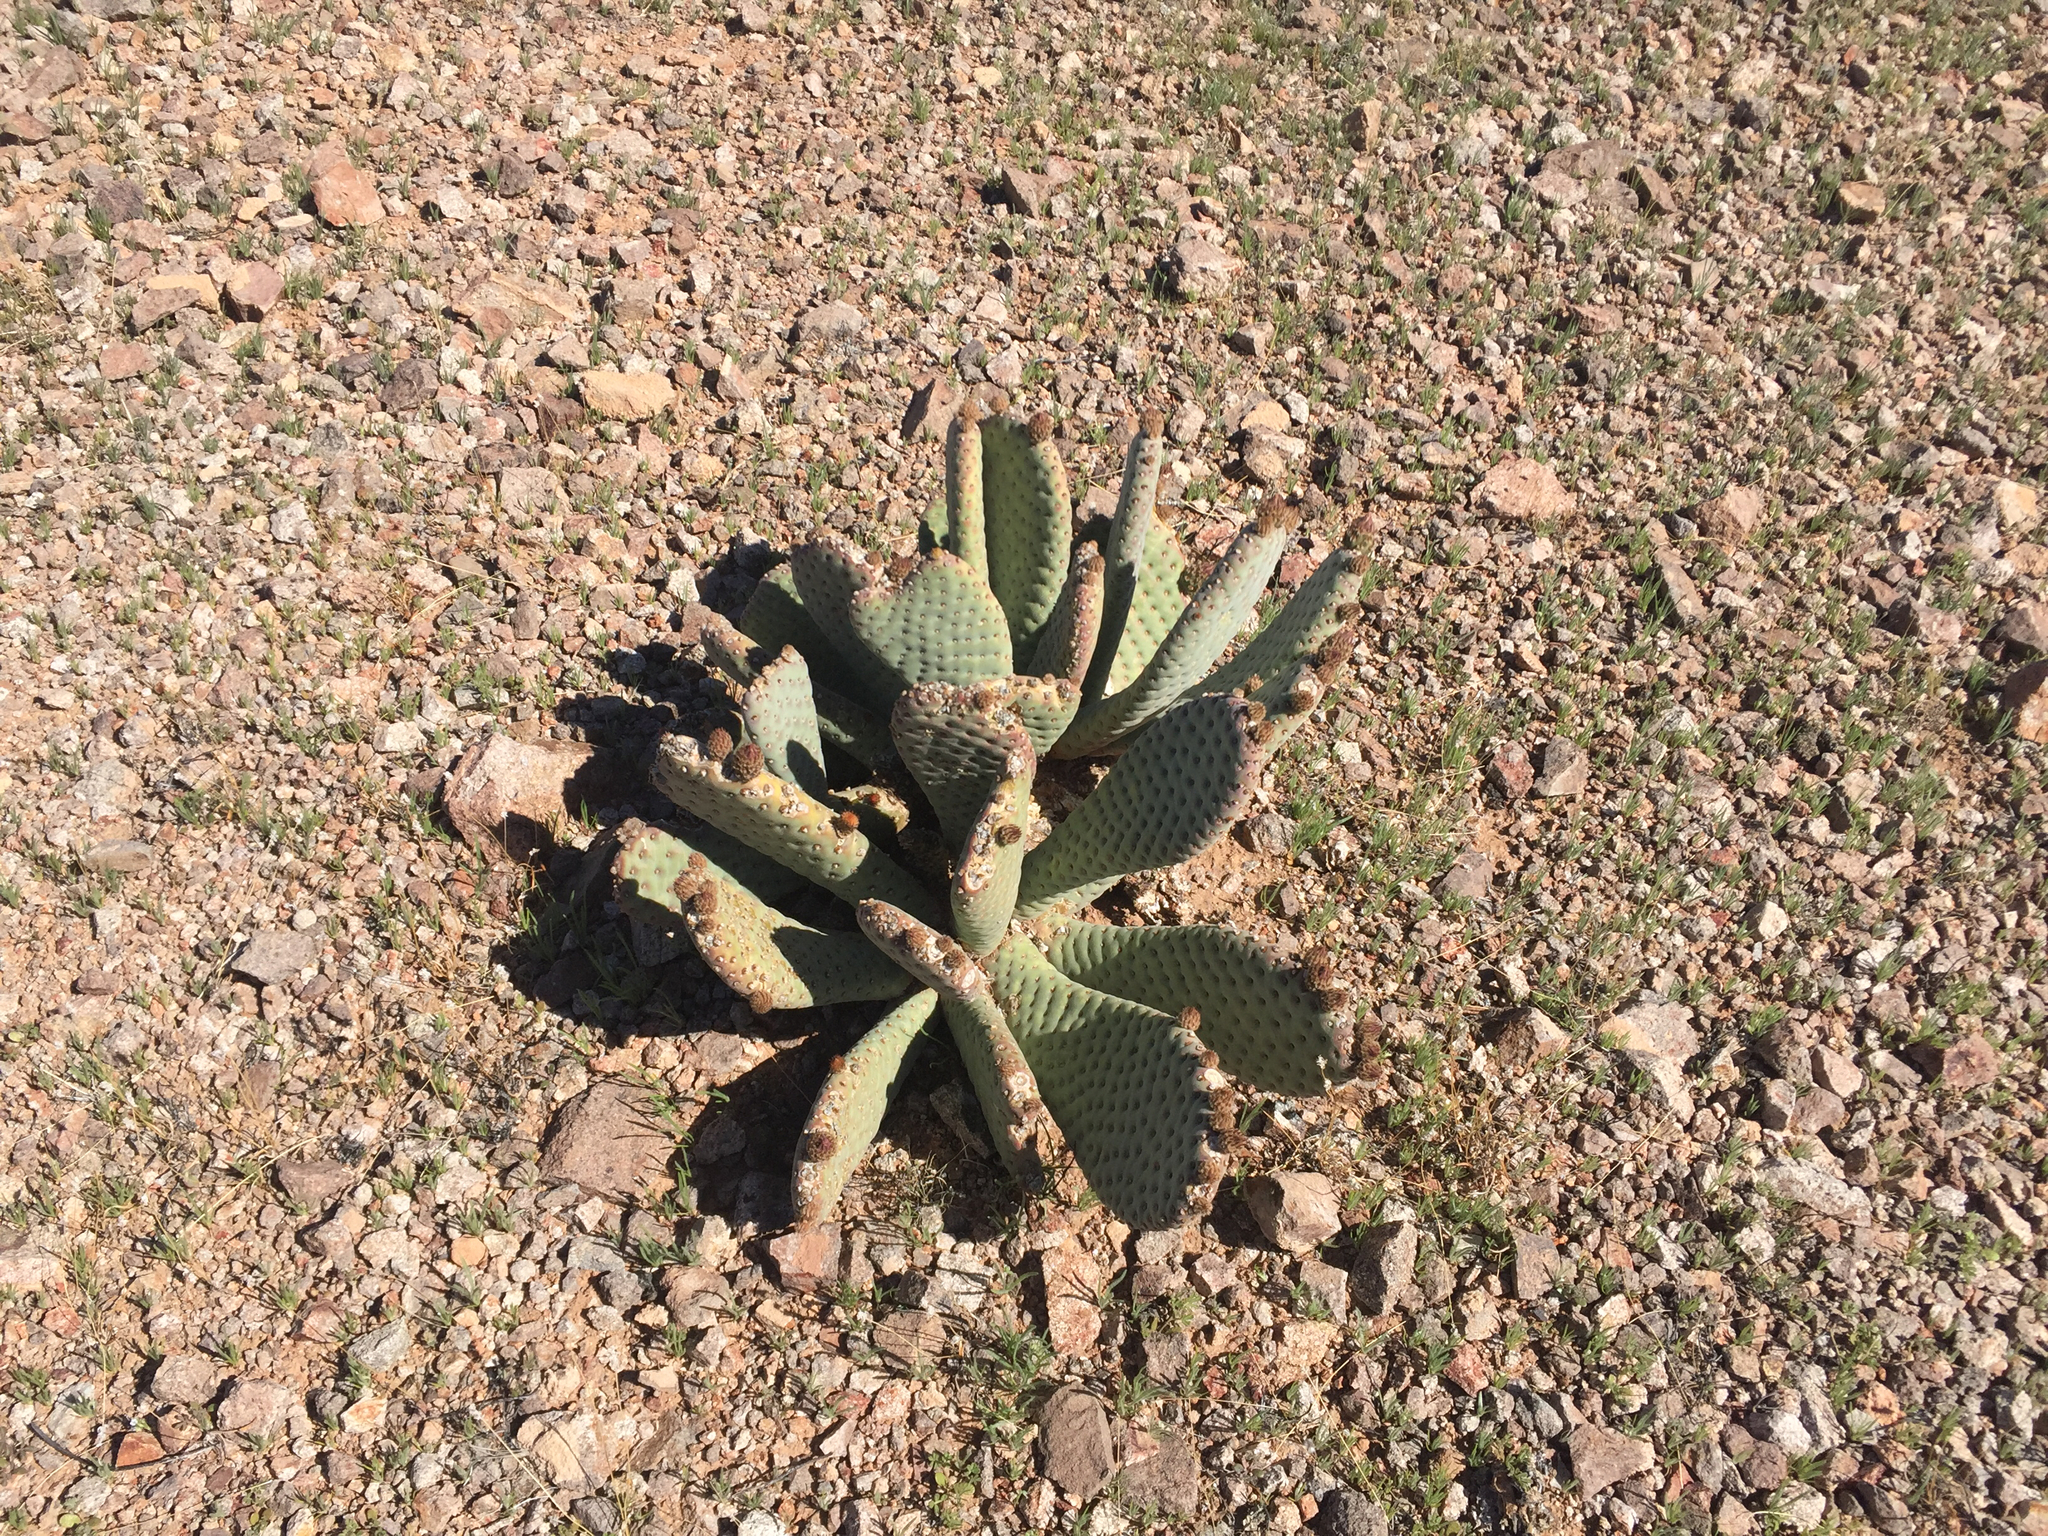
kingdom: Plantae
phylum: Tracheophyta
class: Magnoliopsida
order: Caryophyllales
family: Cactaceae
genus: Opuntia
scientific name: Opuntia basilaris
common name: Beavertail prickly-pear
